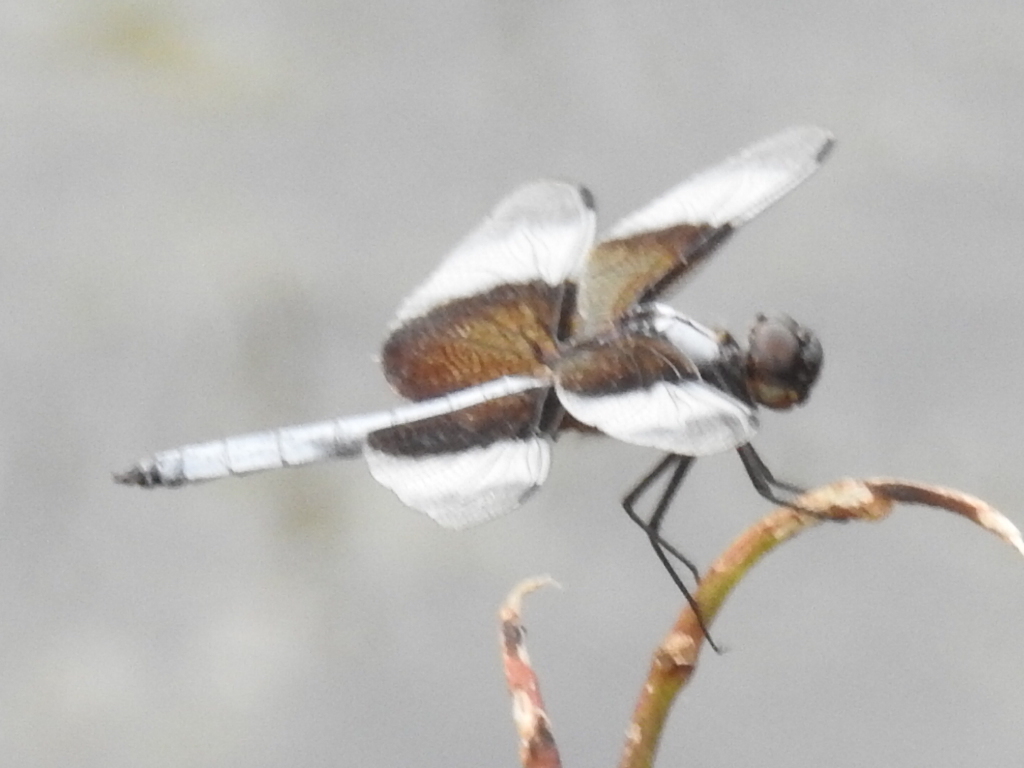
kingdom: Animalia
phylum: Arthropoda
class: Insecta
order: Odonata
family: Libellulidae
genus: Libellula
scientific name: Libellula luctuosa
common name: Widow skimmer
